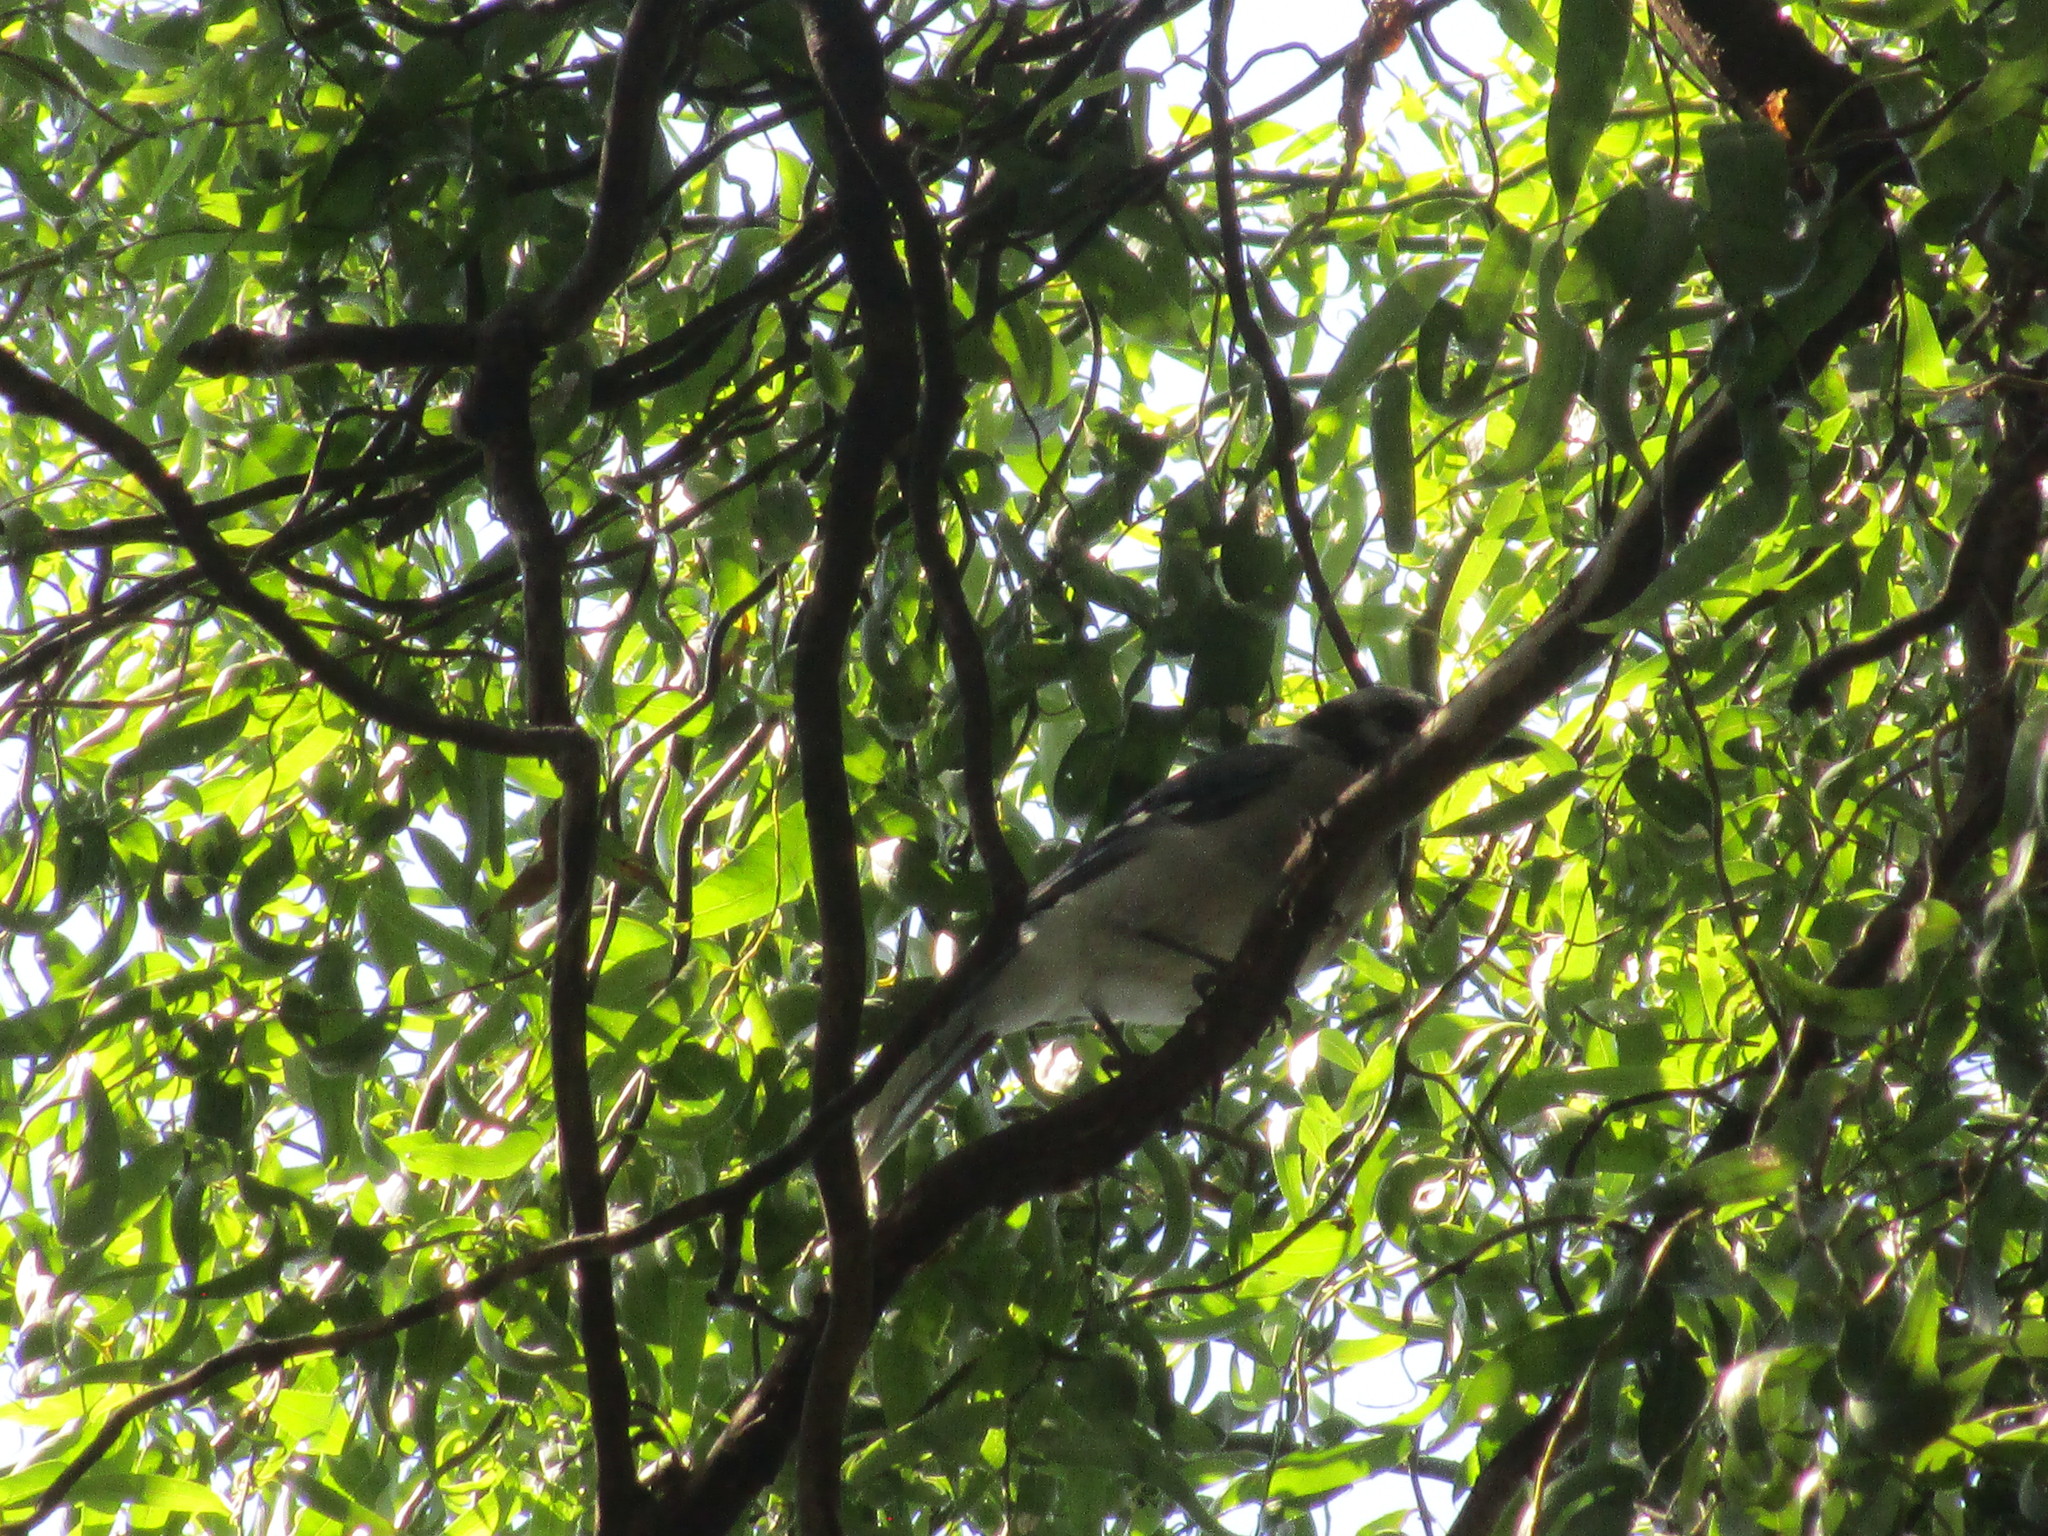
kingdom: Animalia
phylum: Chordata
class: Aves
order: Passeriformes
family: Corvidae
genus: Cyanocitta
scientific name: Cyanocitta cristata
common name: Blue jay
